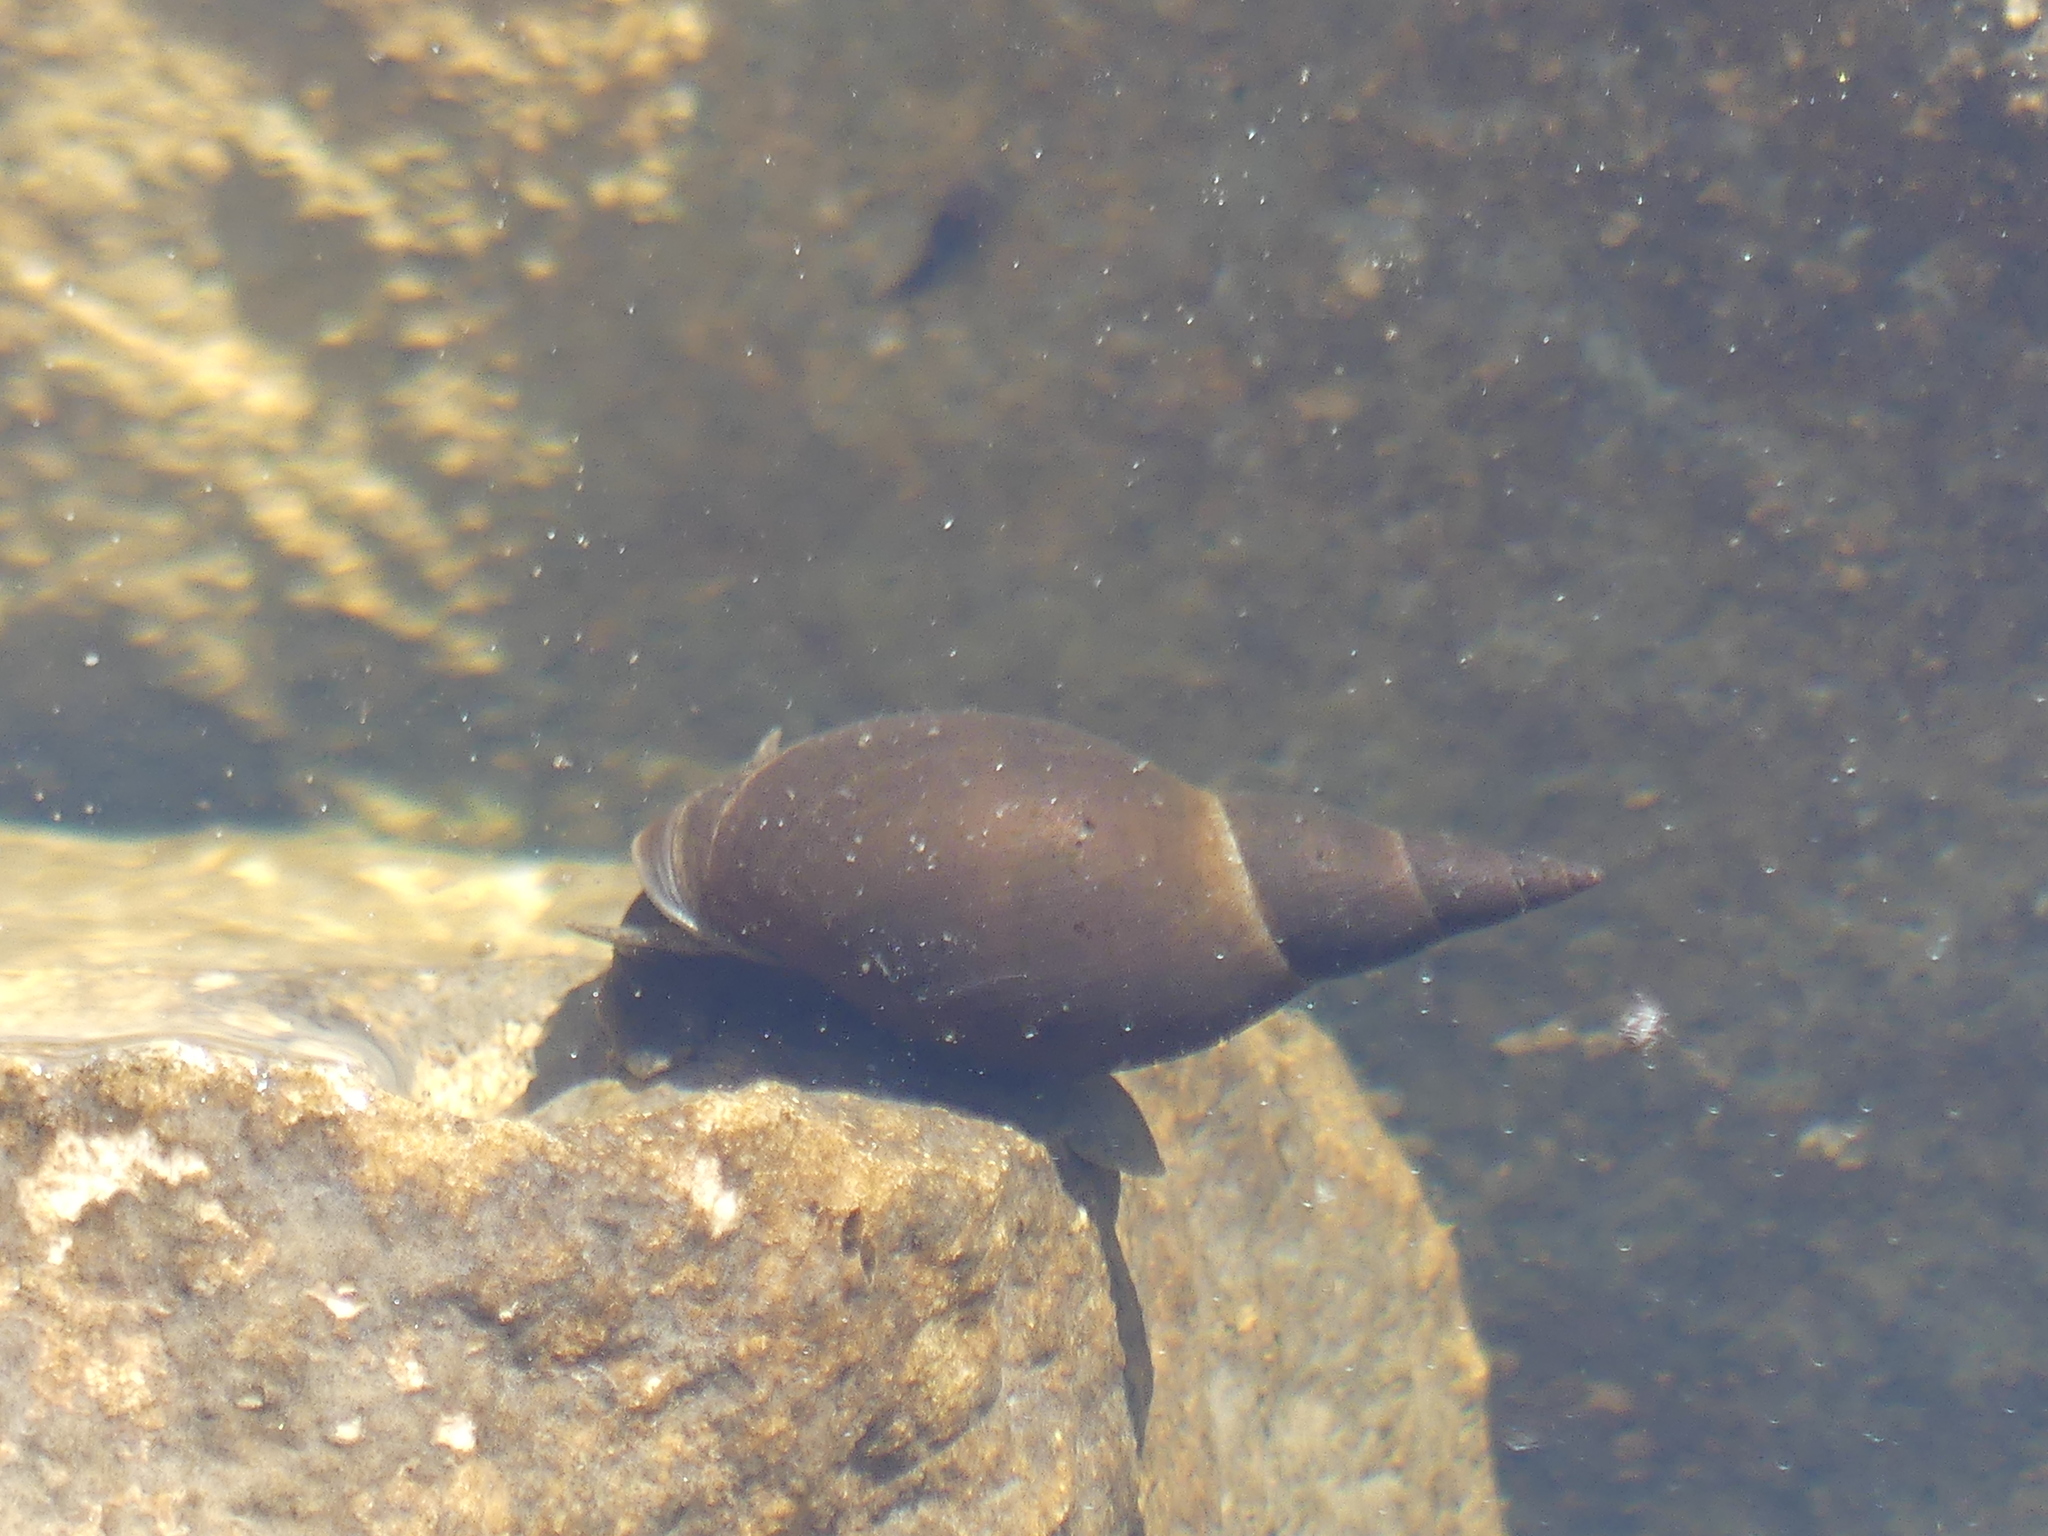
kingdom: Animalia
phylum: Mollusca
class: Gastropoda
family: Lymnaeidae
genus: Lymnaea
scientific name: Lymnaea stagnalis
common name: Great pond snail
